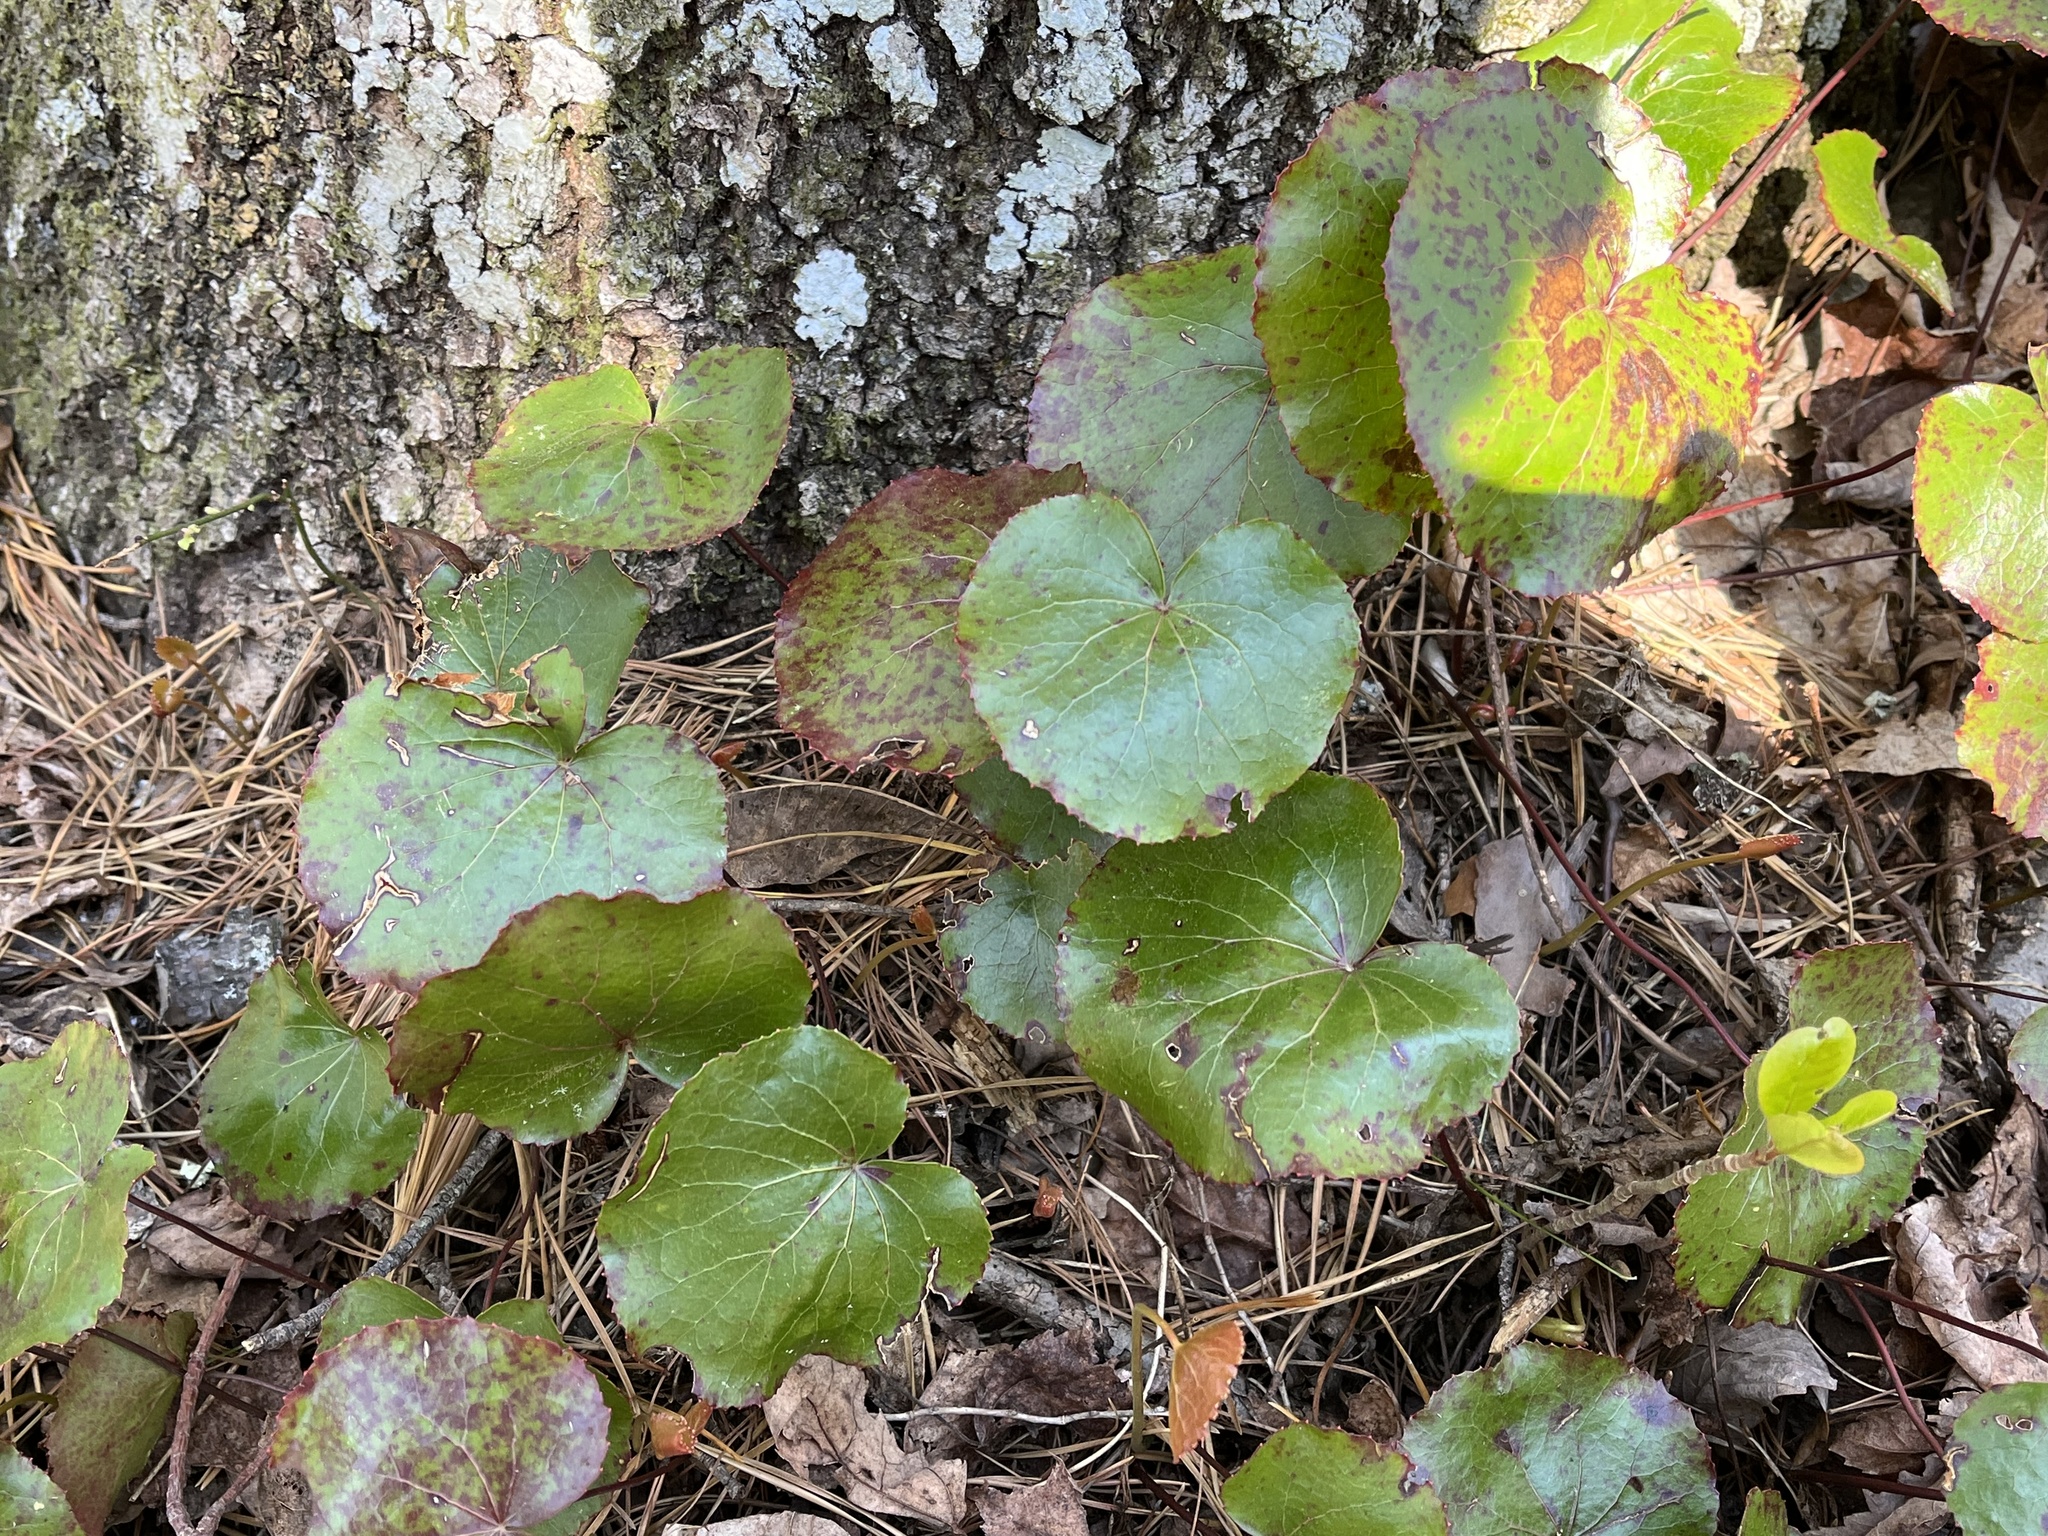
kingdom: Plantae
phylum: Tracheophyta
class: Magnoliopsida
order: Ericales
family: Diapensiaceae
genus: Galax
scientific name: Galax urceolata
